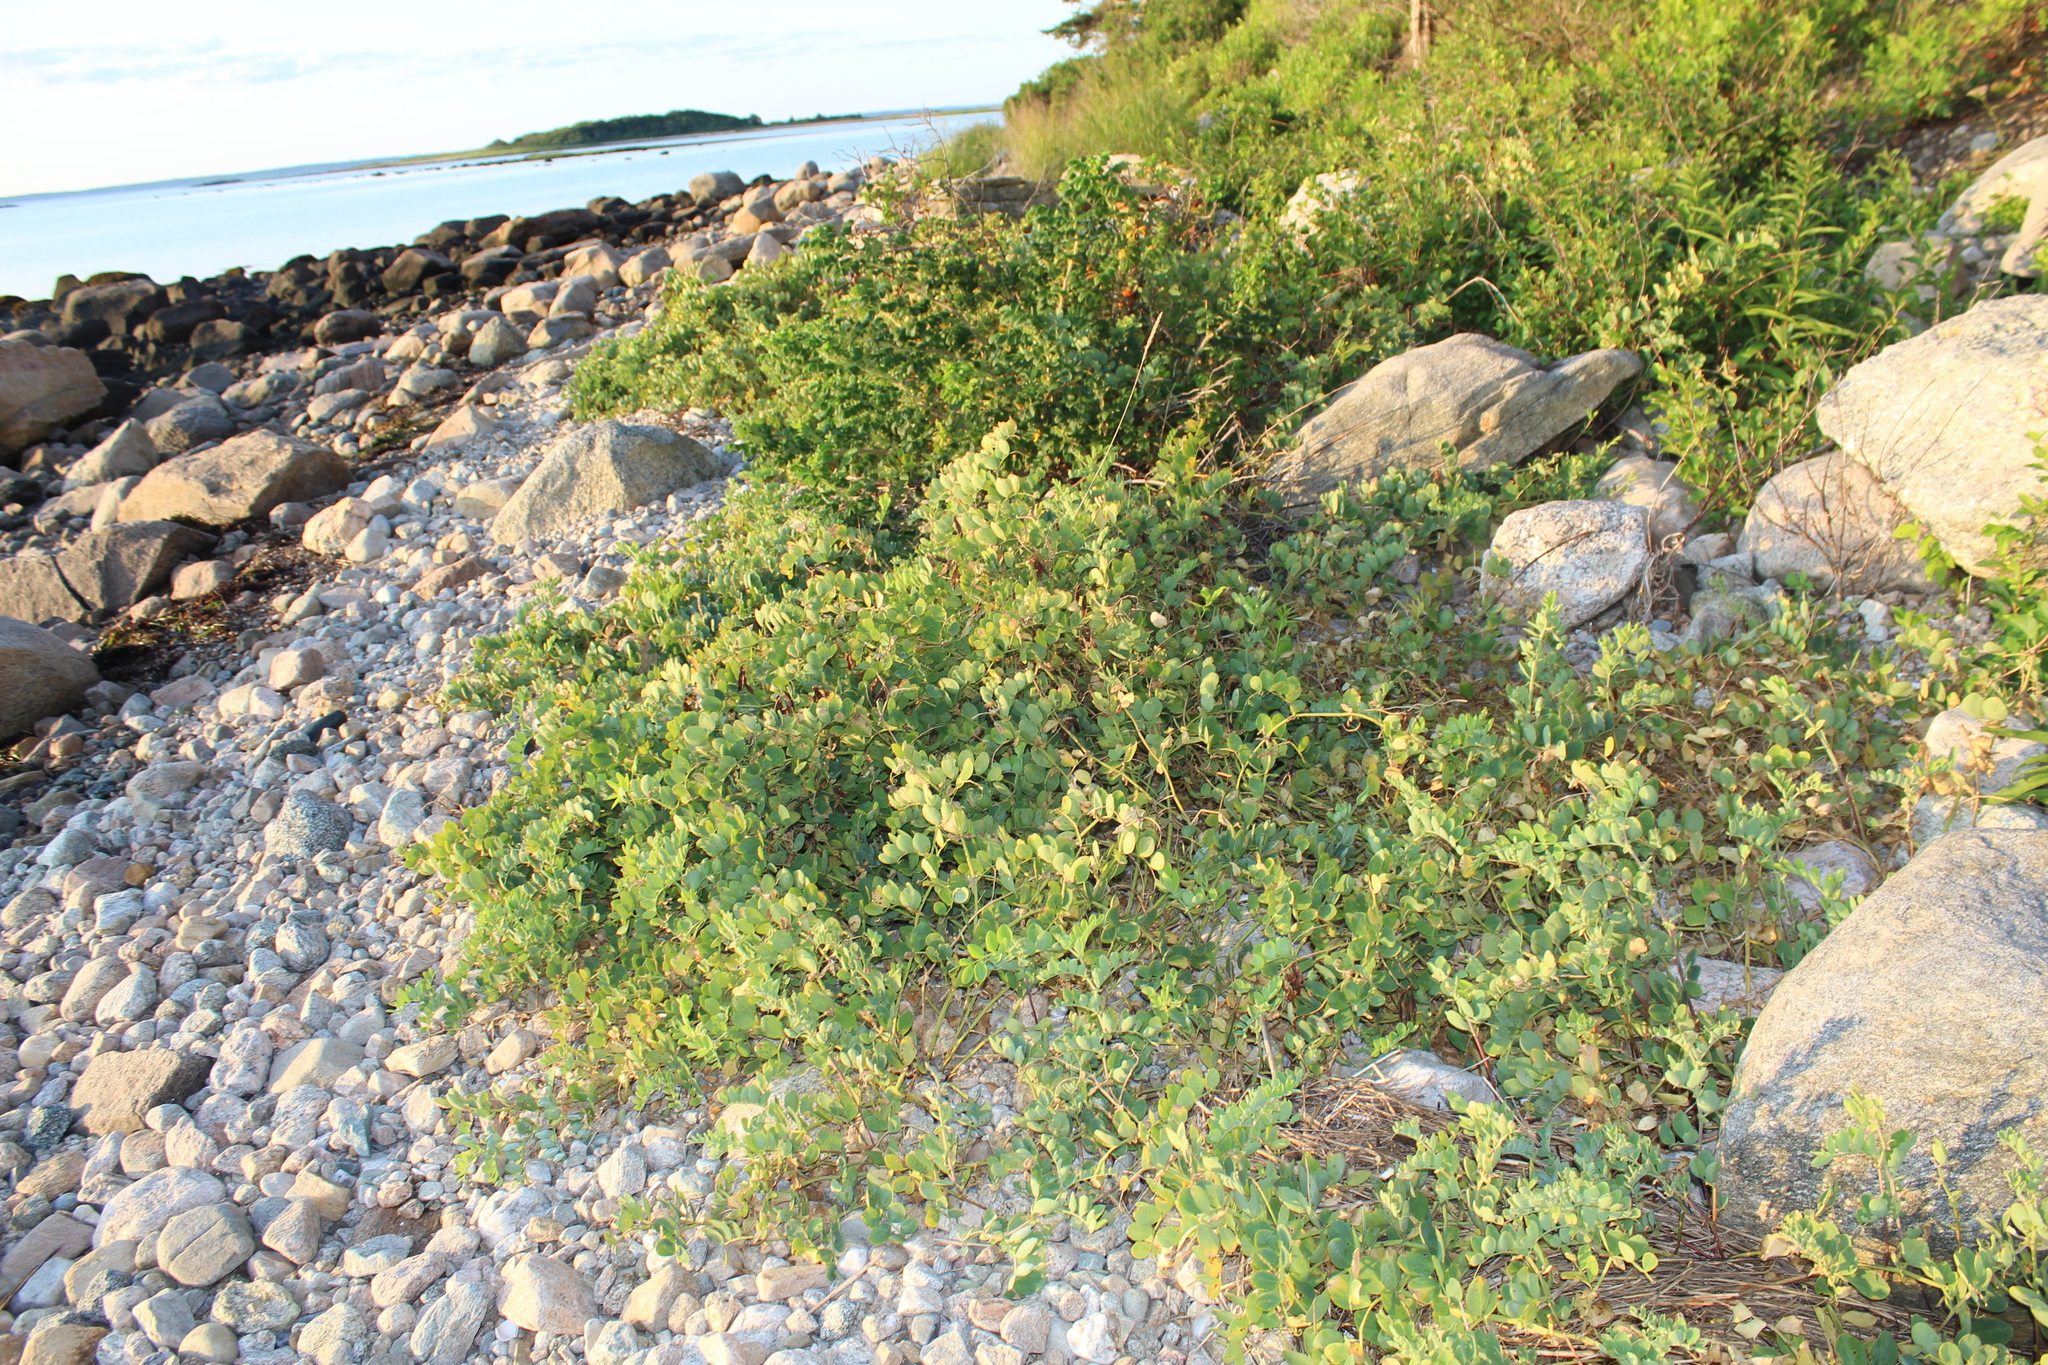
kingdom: Plantae
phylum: Tracheophyta
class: Magnoliopsida
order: Fabales
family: Fabaceae
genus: Lathyrus
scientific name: Lathyrus japonicus
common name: Sea pea
